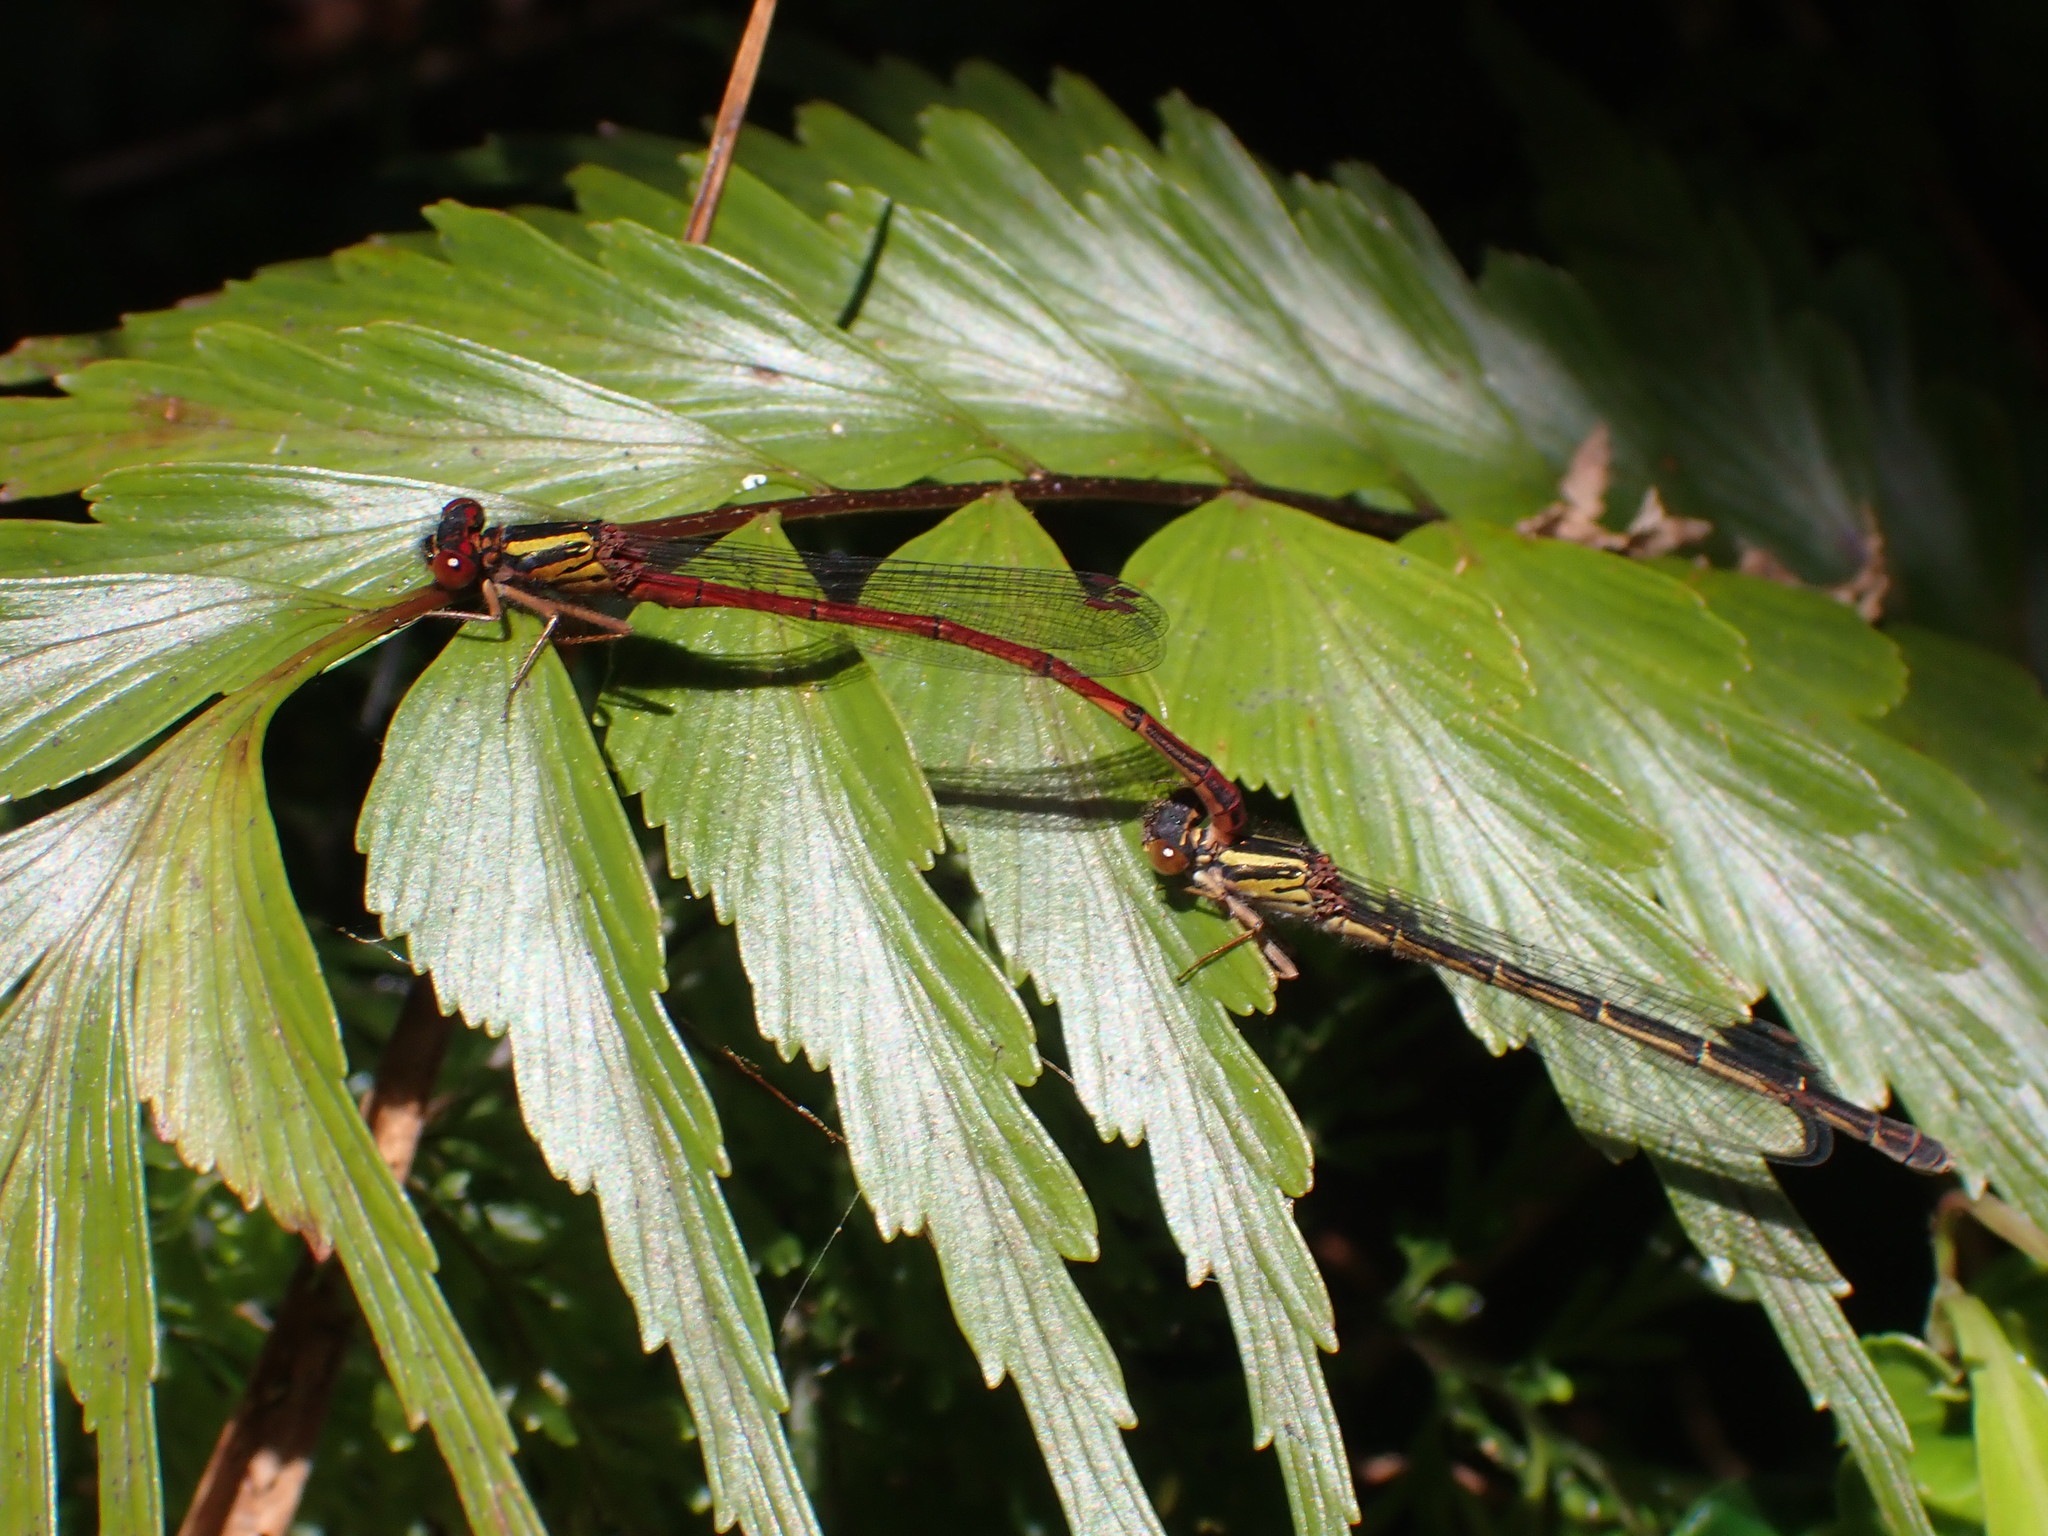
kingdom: Animalia
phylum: Arthropoda
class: Insecta
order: Odonata
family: Coenagrionidae
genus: Xanthocnemis
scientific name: Xanthocnemis tuanuii
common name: Chatham redcoat damselfly
